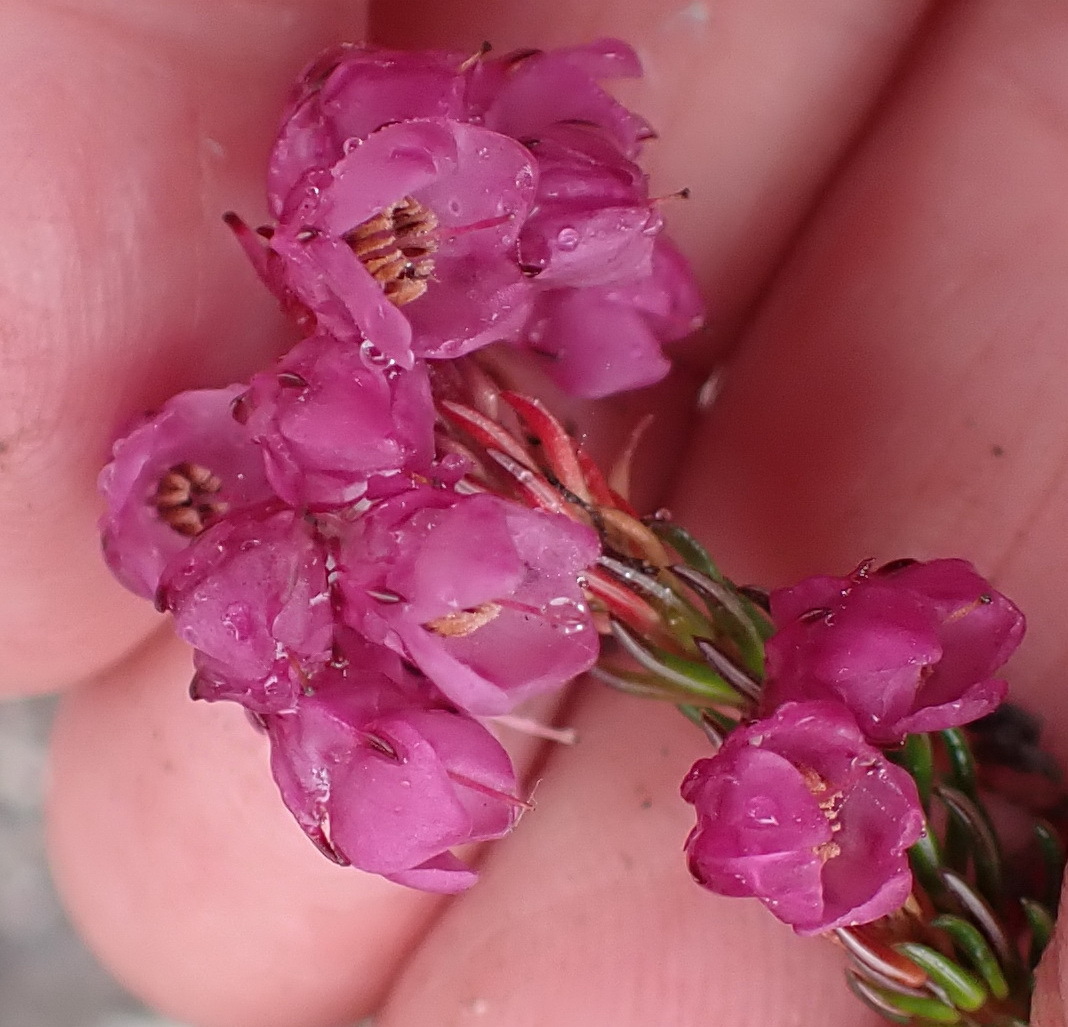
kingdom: Plantae
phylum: Tracheophyta
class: Magnoliopsida
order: Ericales
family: Ericaceae
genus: Erica
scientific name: Erica cubica
